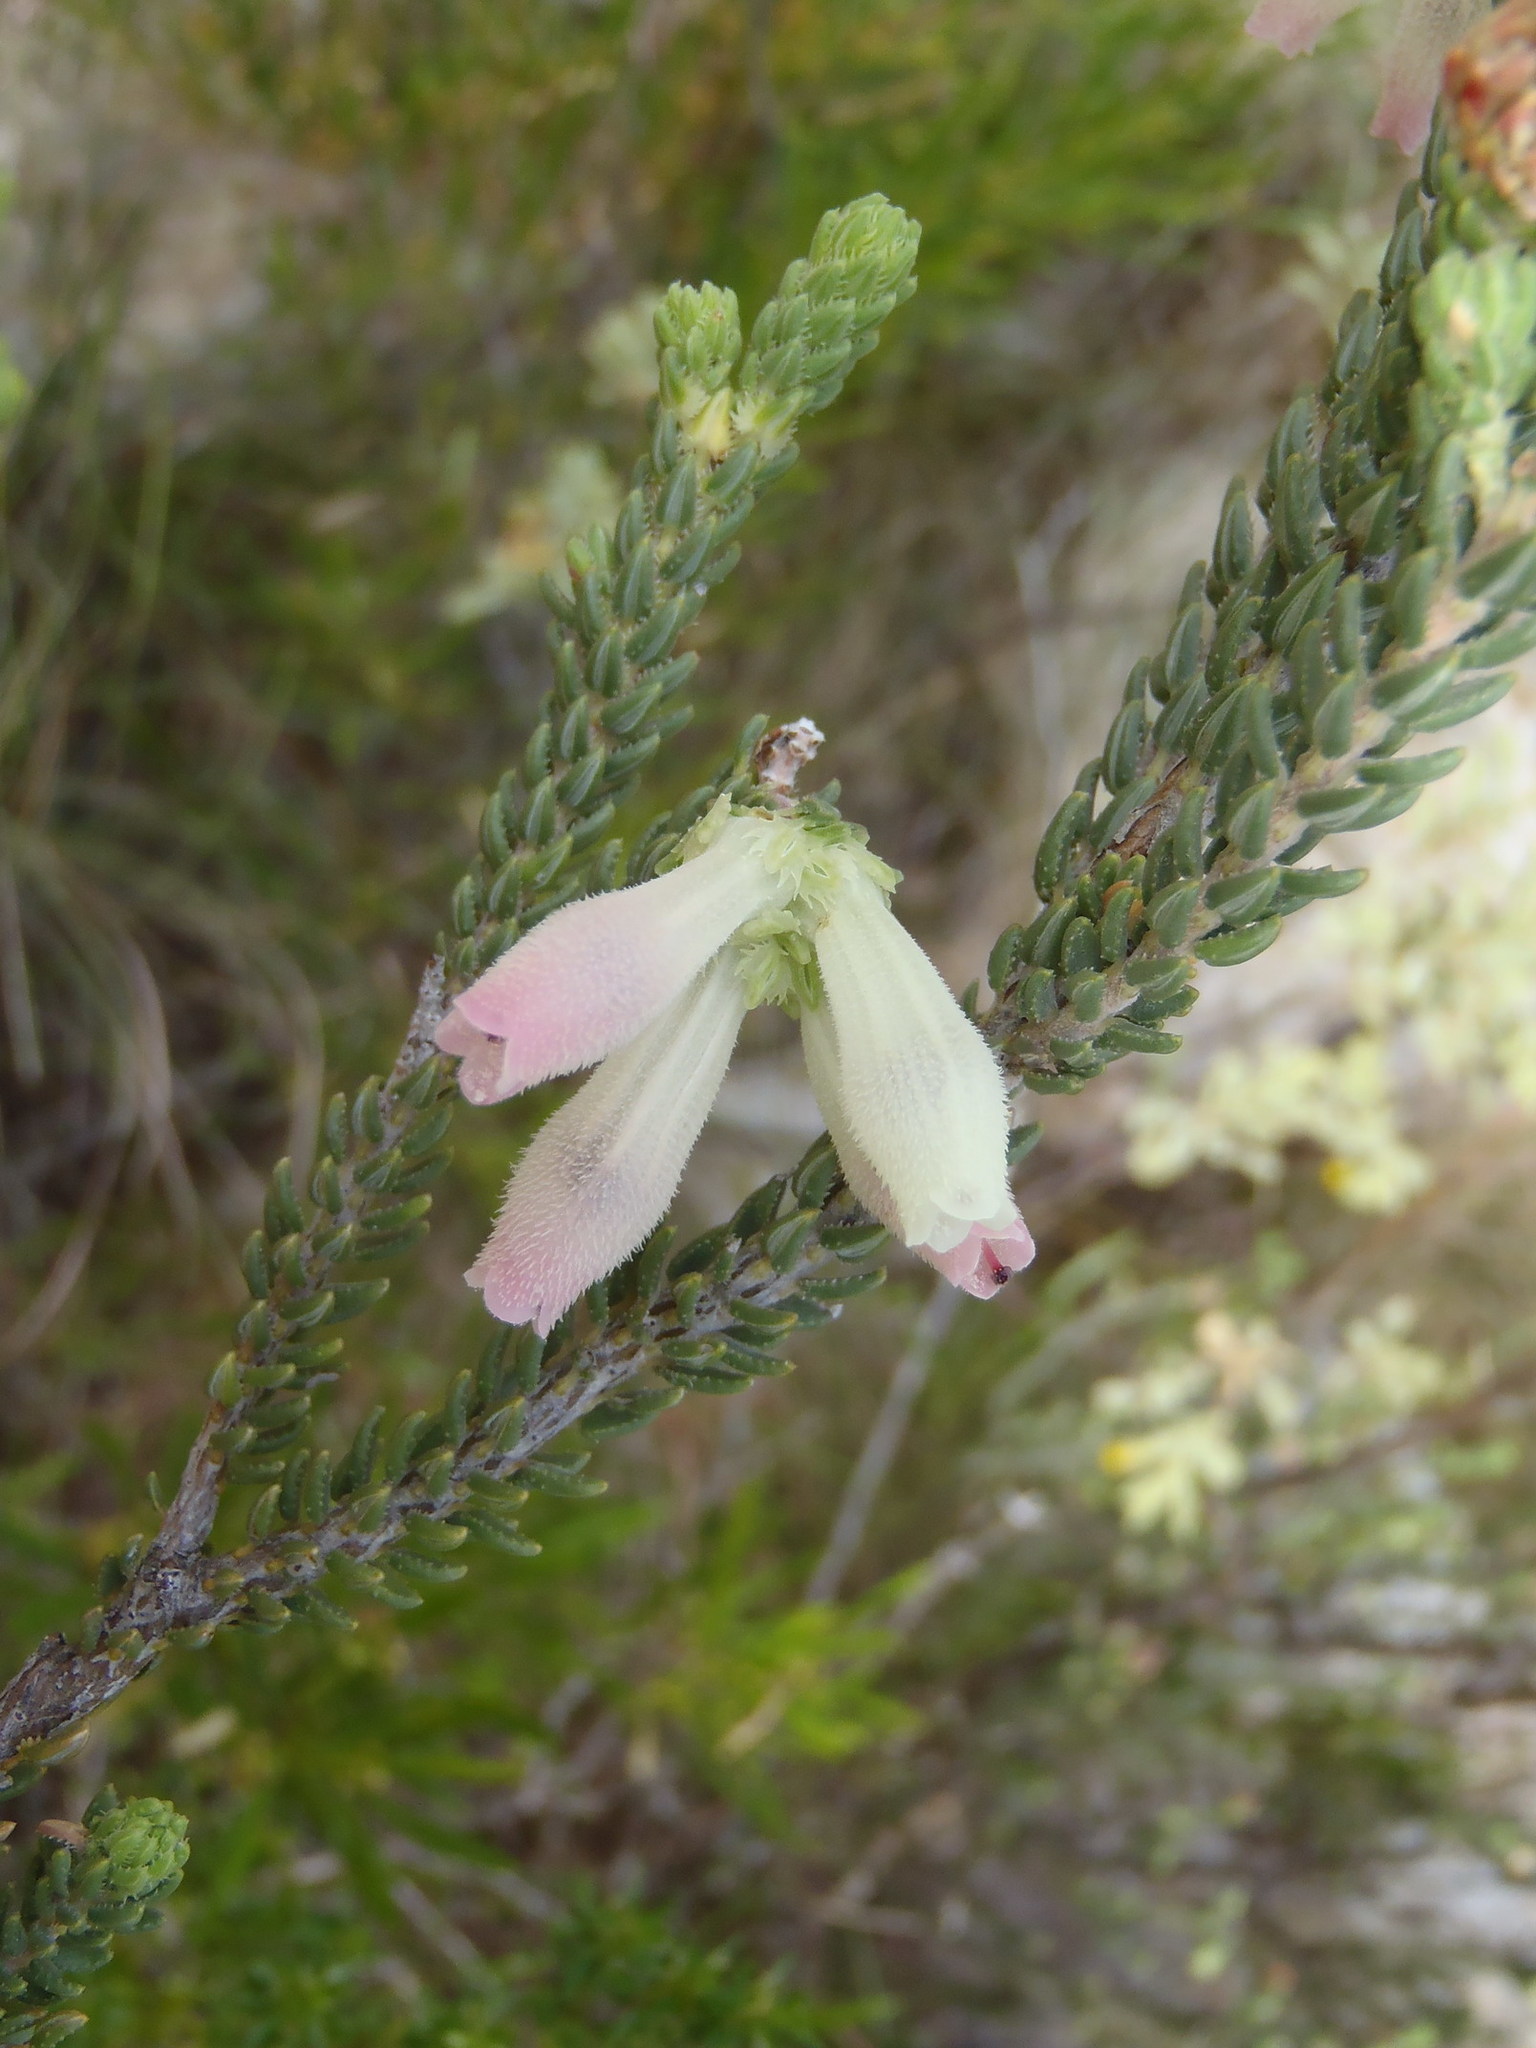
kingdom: Plantae
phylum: Tracheophyta
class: Magnoliopsida
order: Ericales
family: Ericaceae
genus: Erica
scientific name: Erica pectinifolia
